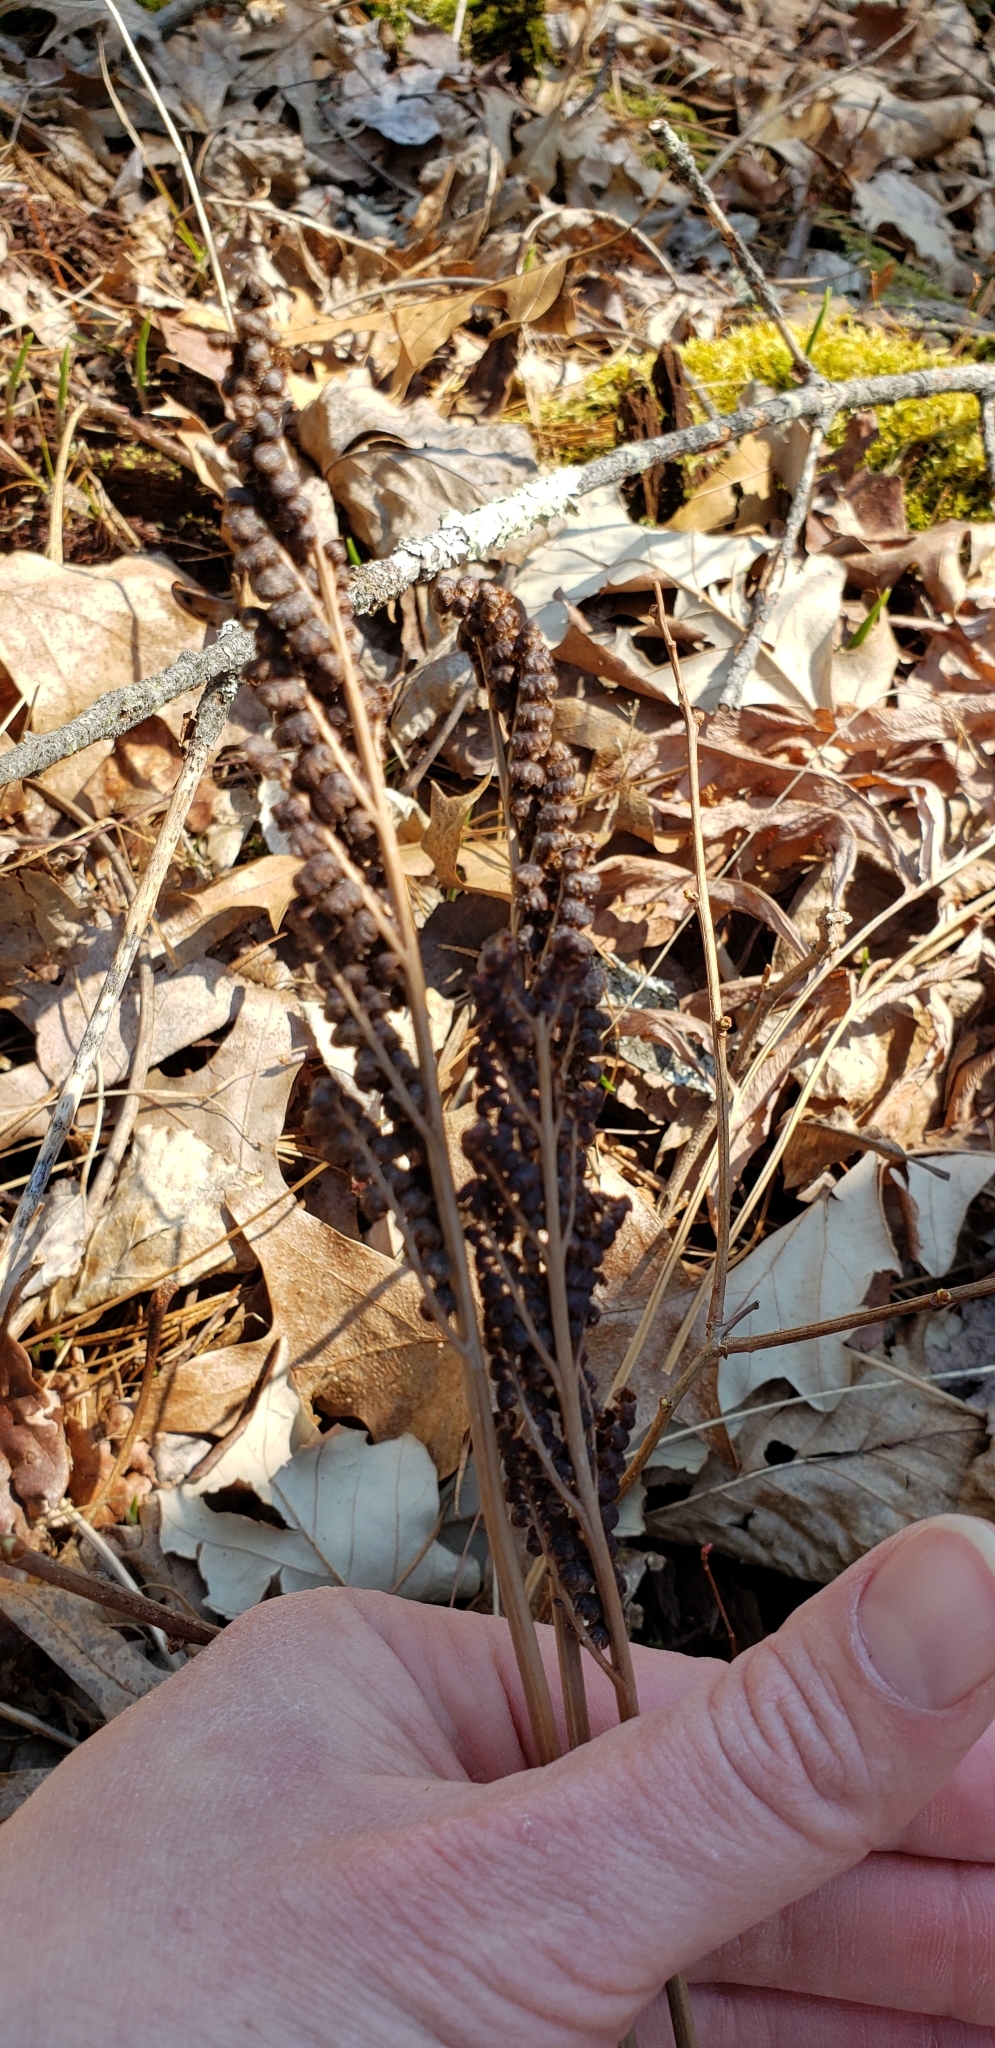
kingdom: Plantae
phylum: Tracheophyta
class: Polypodiopsida
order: Polypodiales
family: Onocleaceae
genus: Onoclea
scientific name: Onoclea sensibilis
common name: Sensitive fern
